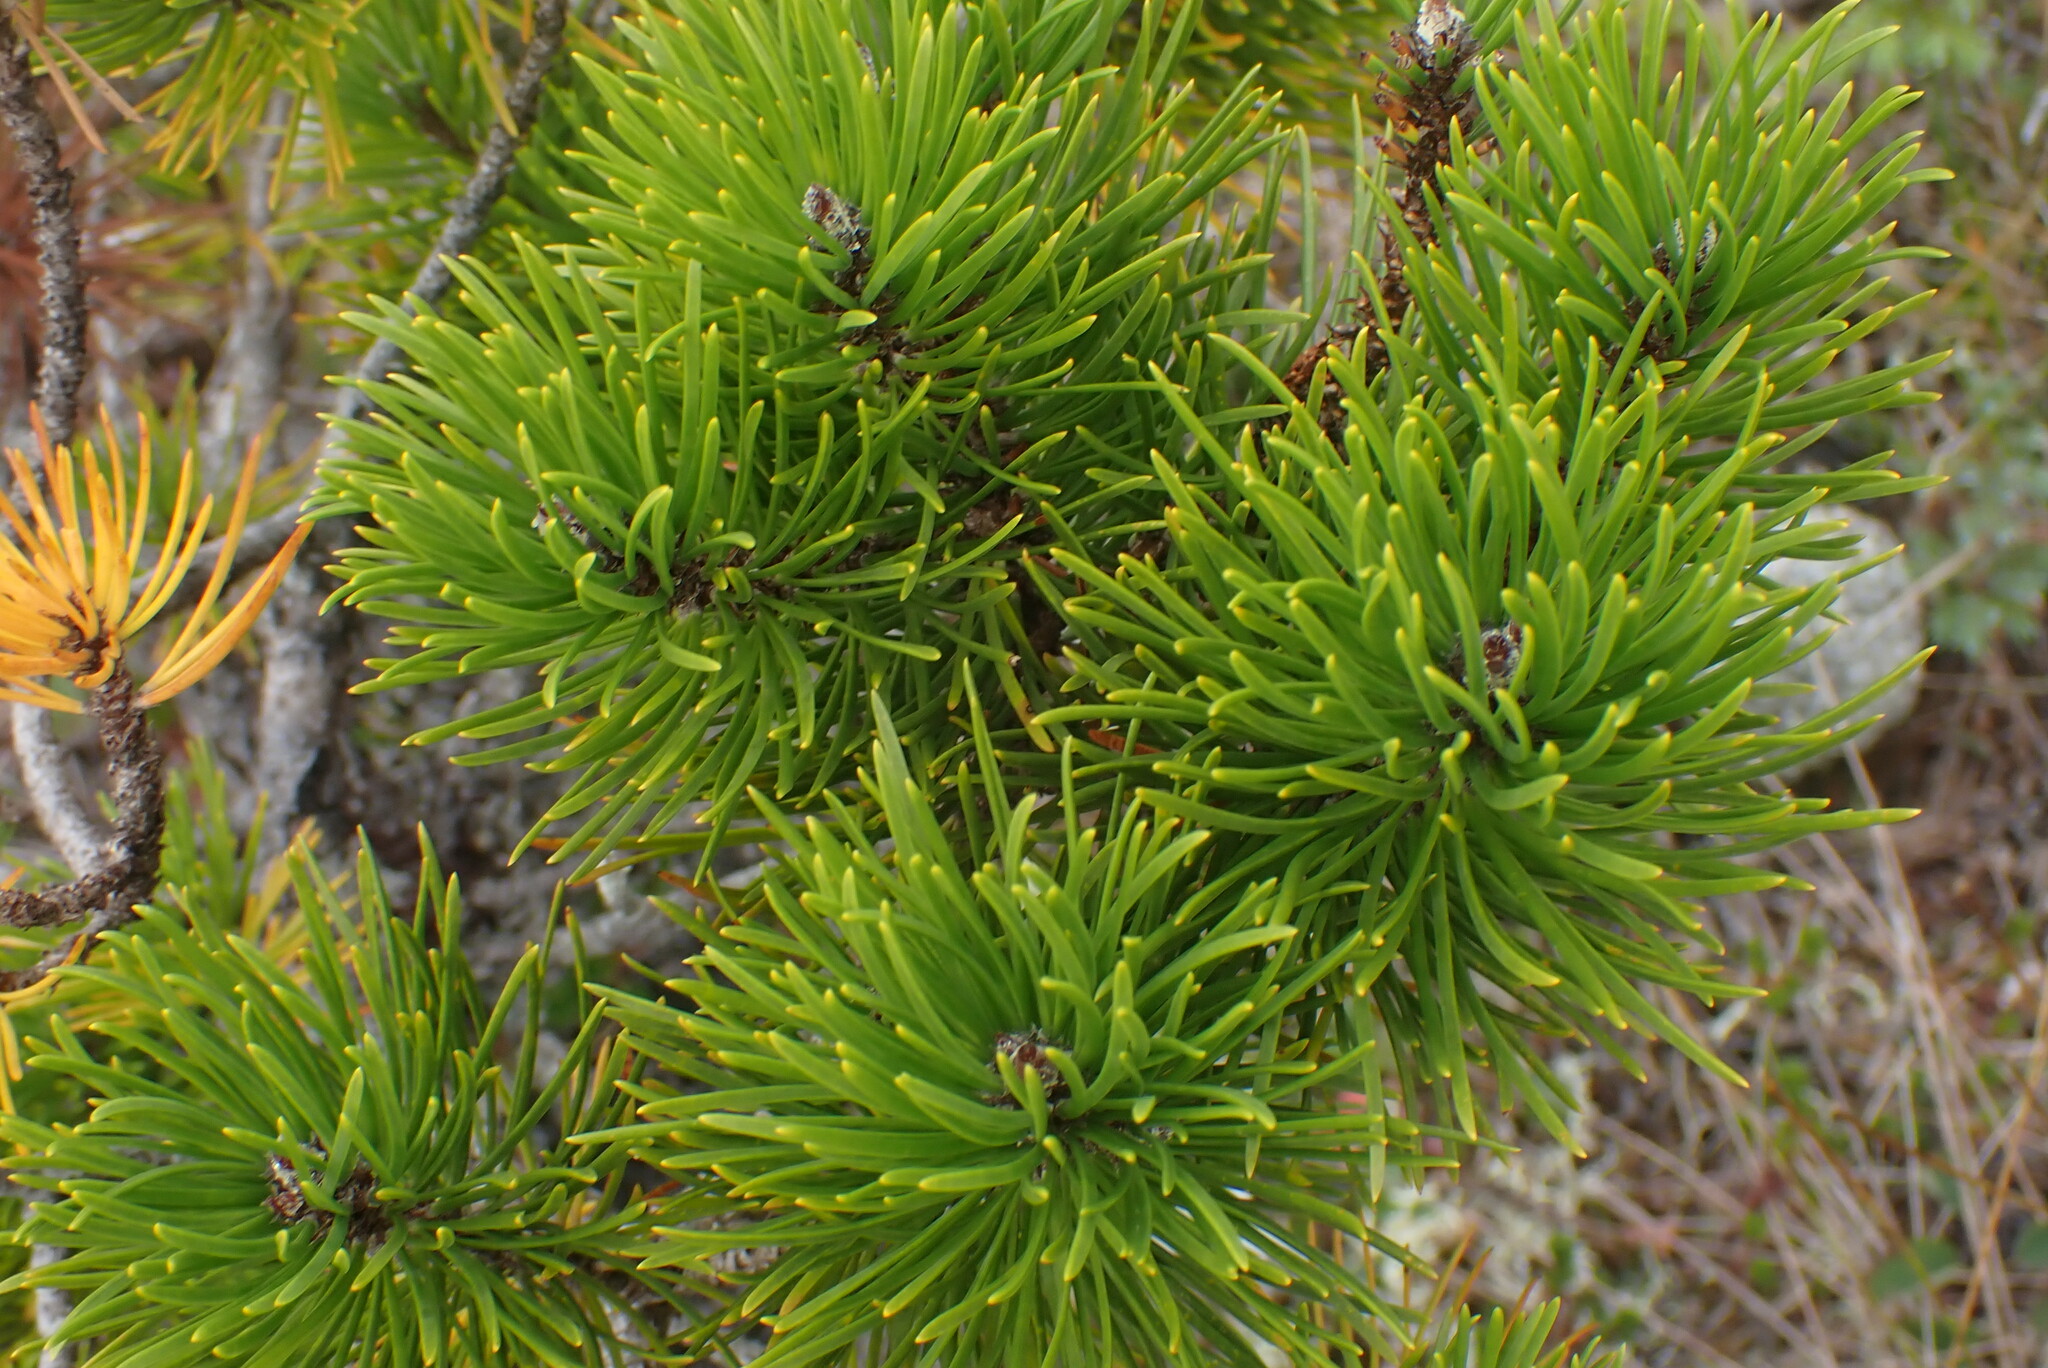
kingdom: Plantae
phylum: Tracheophyta
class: Pinopsida
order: Pinales
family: Pinaceae
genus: Pinus
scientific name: Pinus contorta
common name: Lodgepole pine
